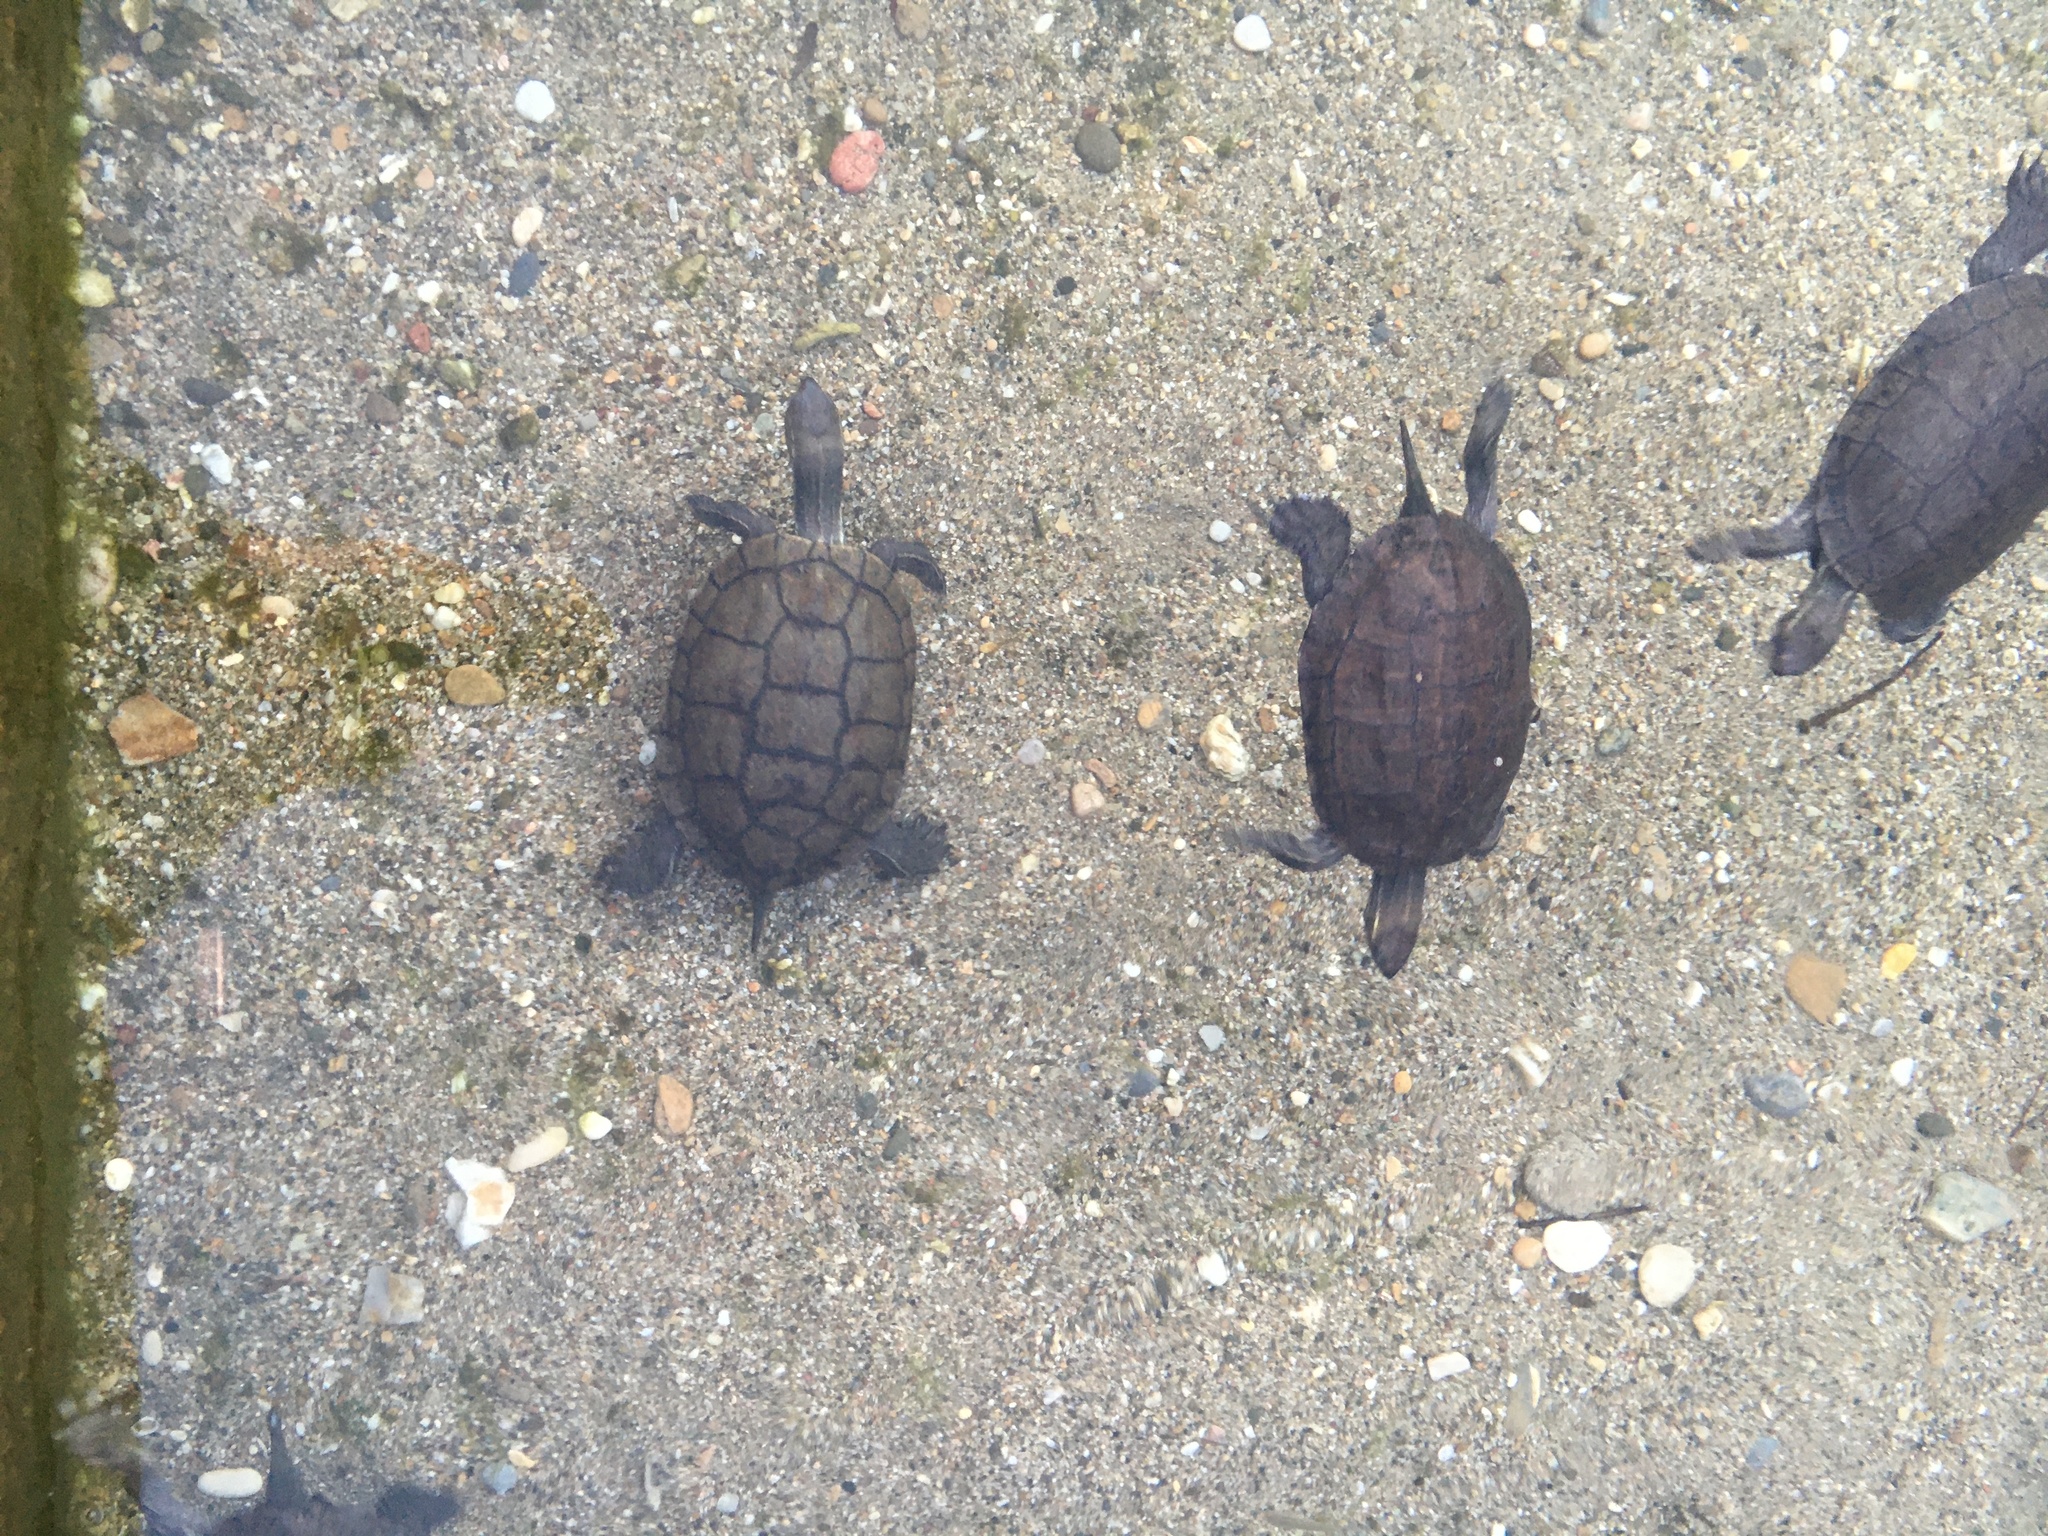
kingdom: Animalia
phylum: Chordata
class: Testudines
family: Geoemydidae
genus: Mauremys
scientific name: Mauremys rivulata
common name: Western caspian turtle
